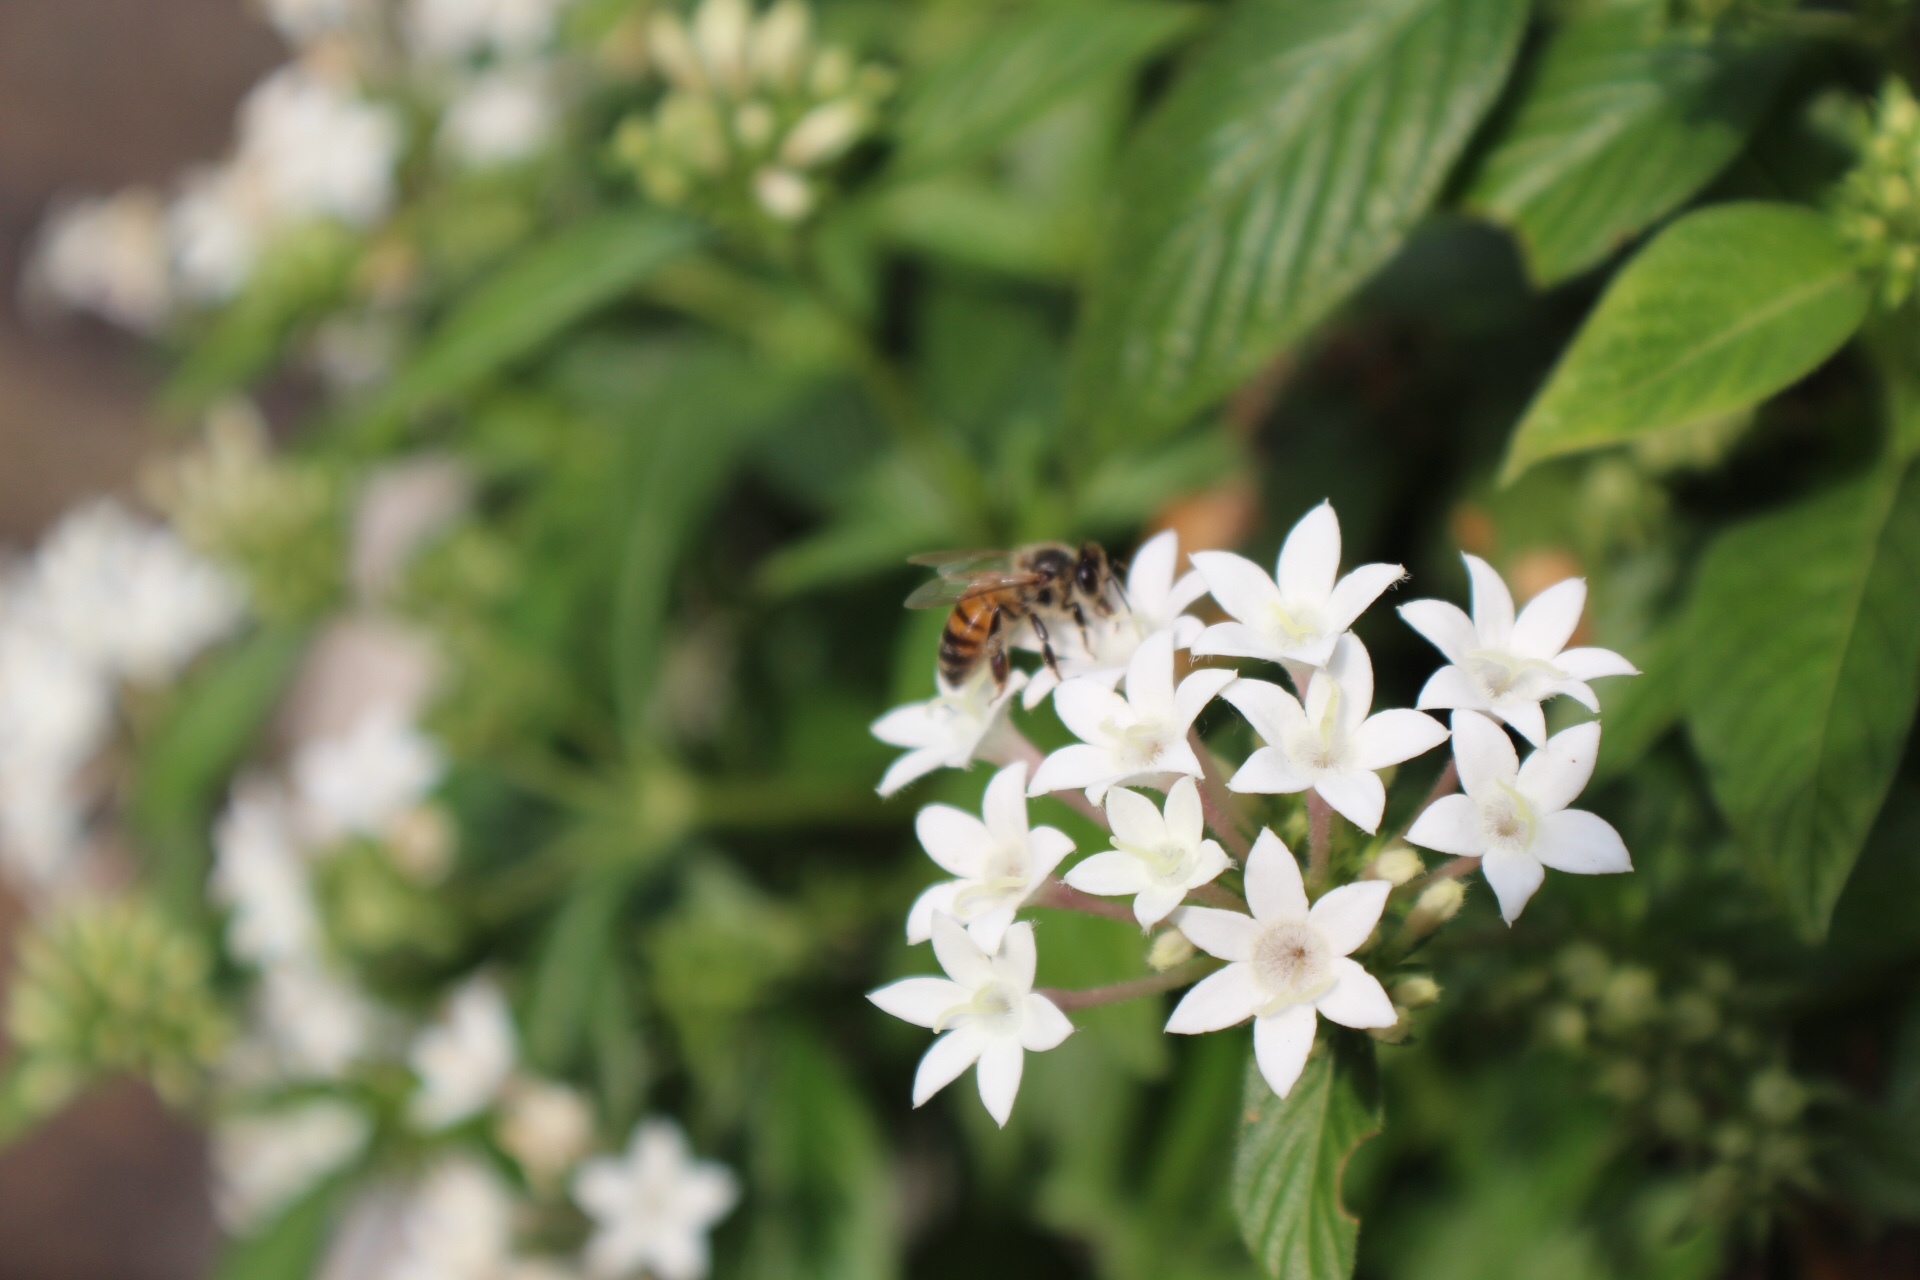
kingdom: Animalia
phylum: Arthropoda
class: Insecta
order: Hymenoptera
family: Apidae
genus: Apis
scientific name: Apis mellifera
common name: Honey bee
